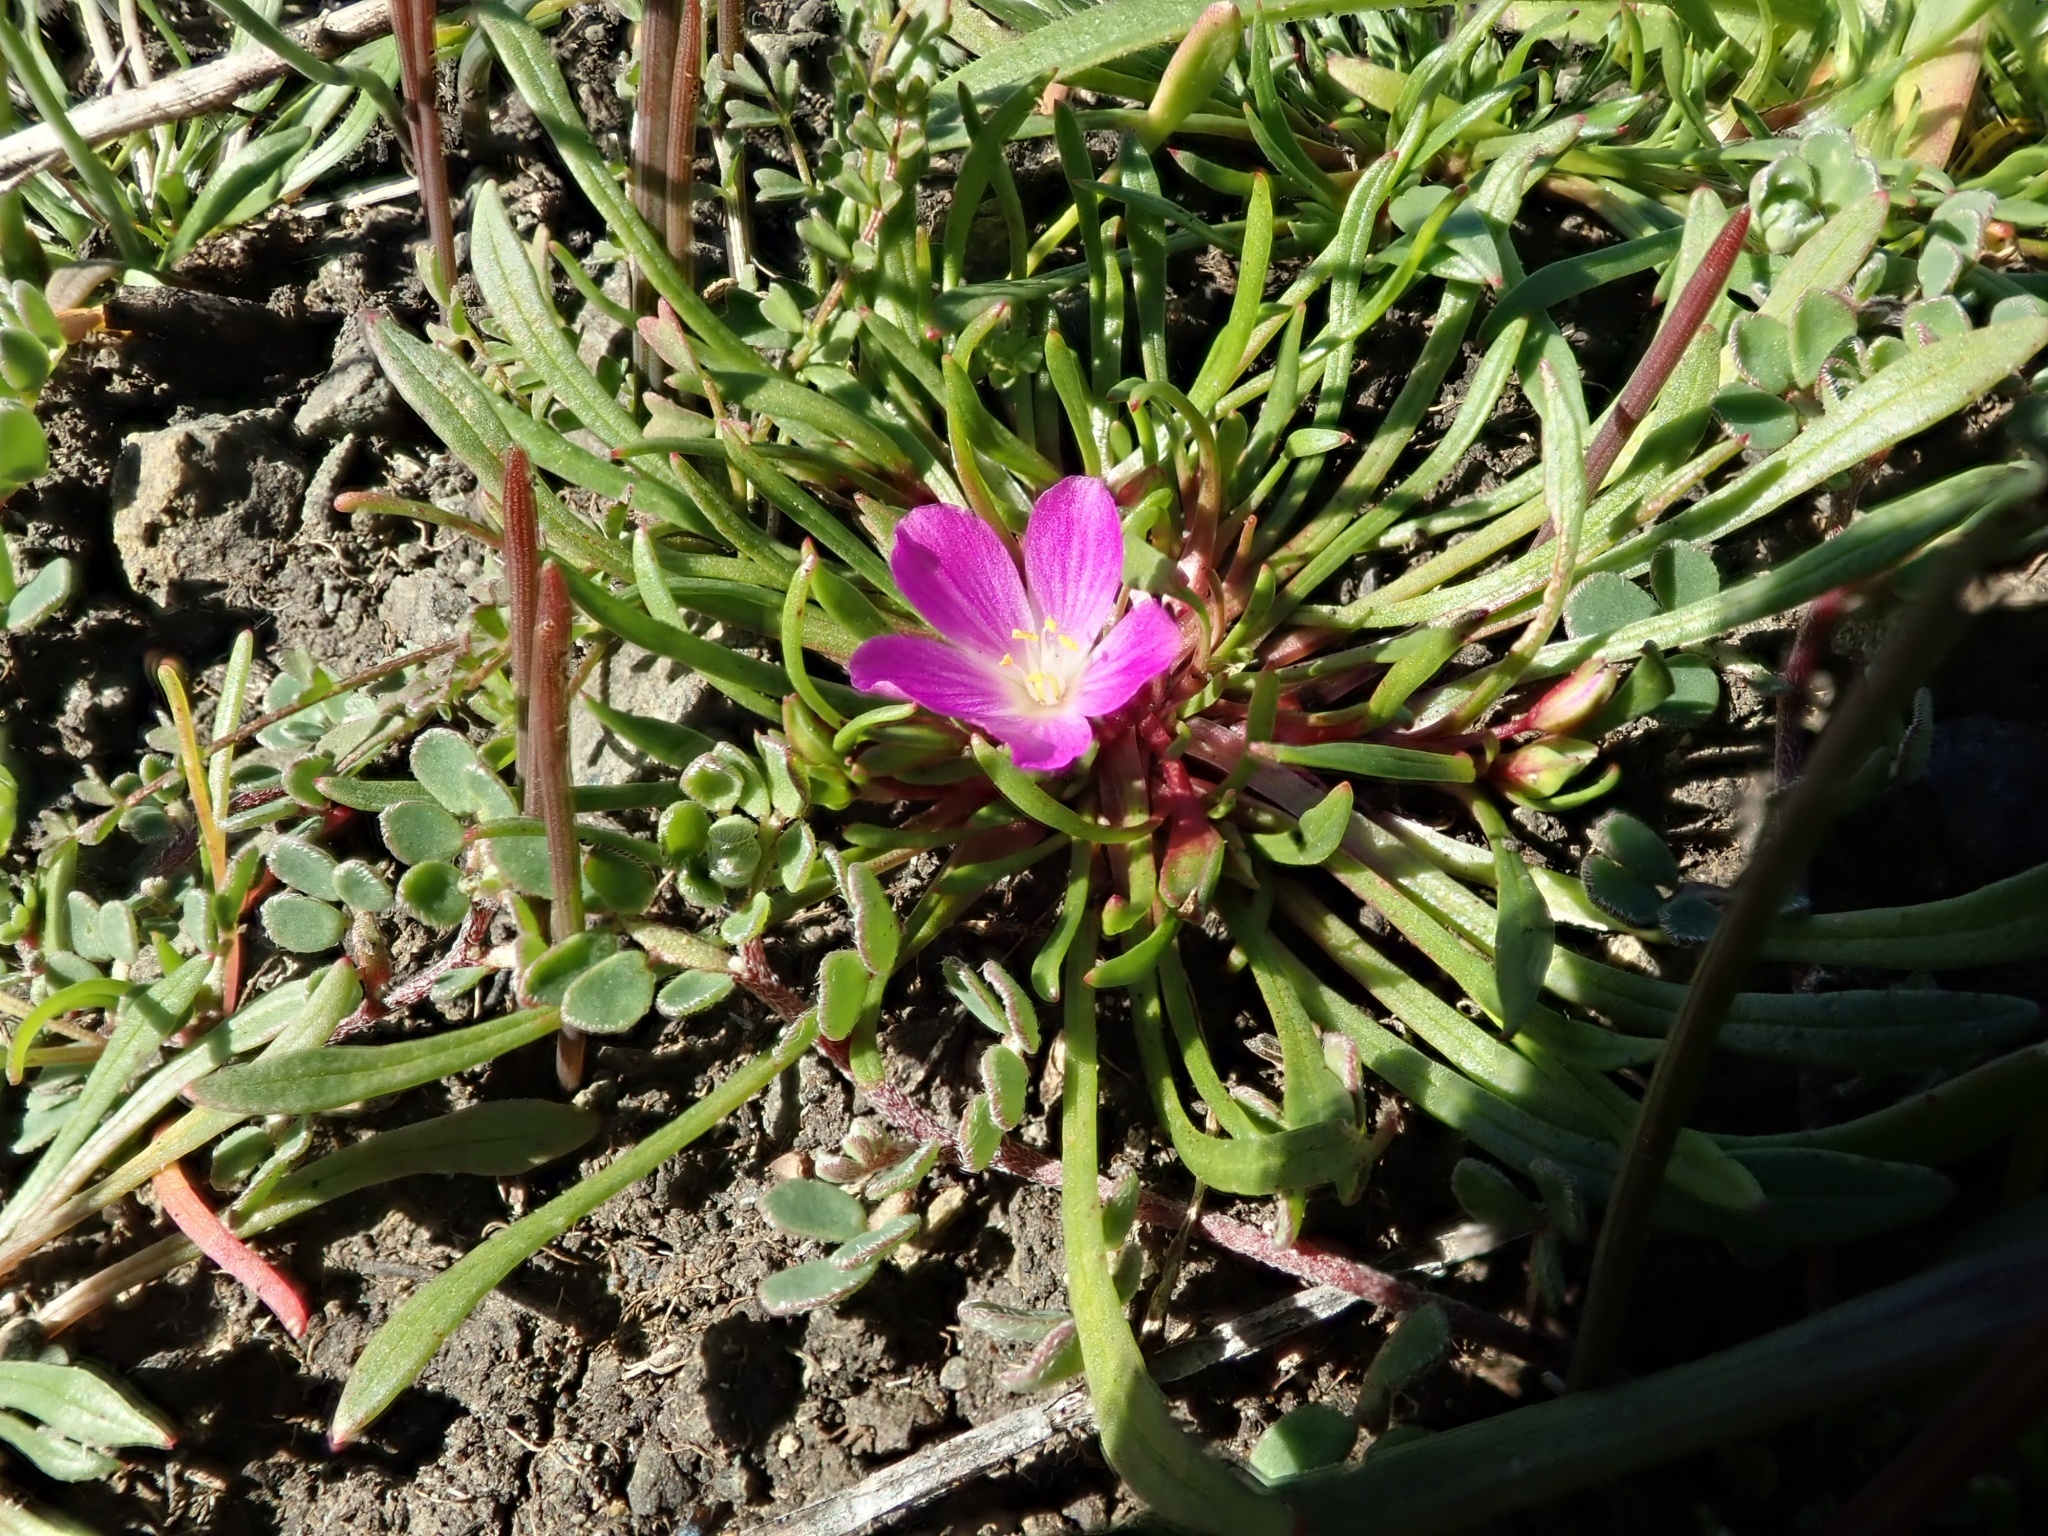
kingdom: Plantae
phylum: Tracheophyta
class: Magnoliopsida
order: Caryophyllales
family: Montiaceae
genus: Calandrinia
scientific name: Calandrinia menziesii
